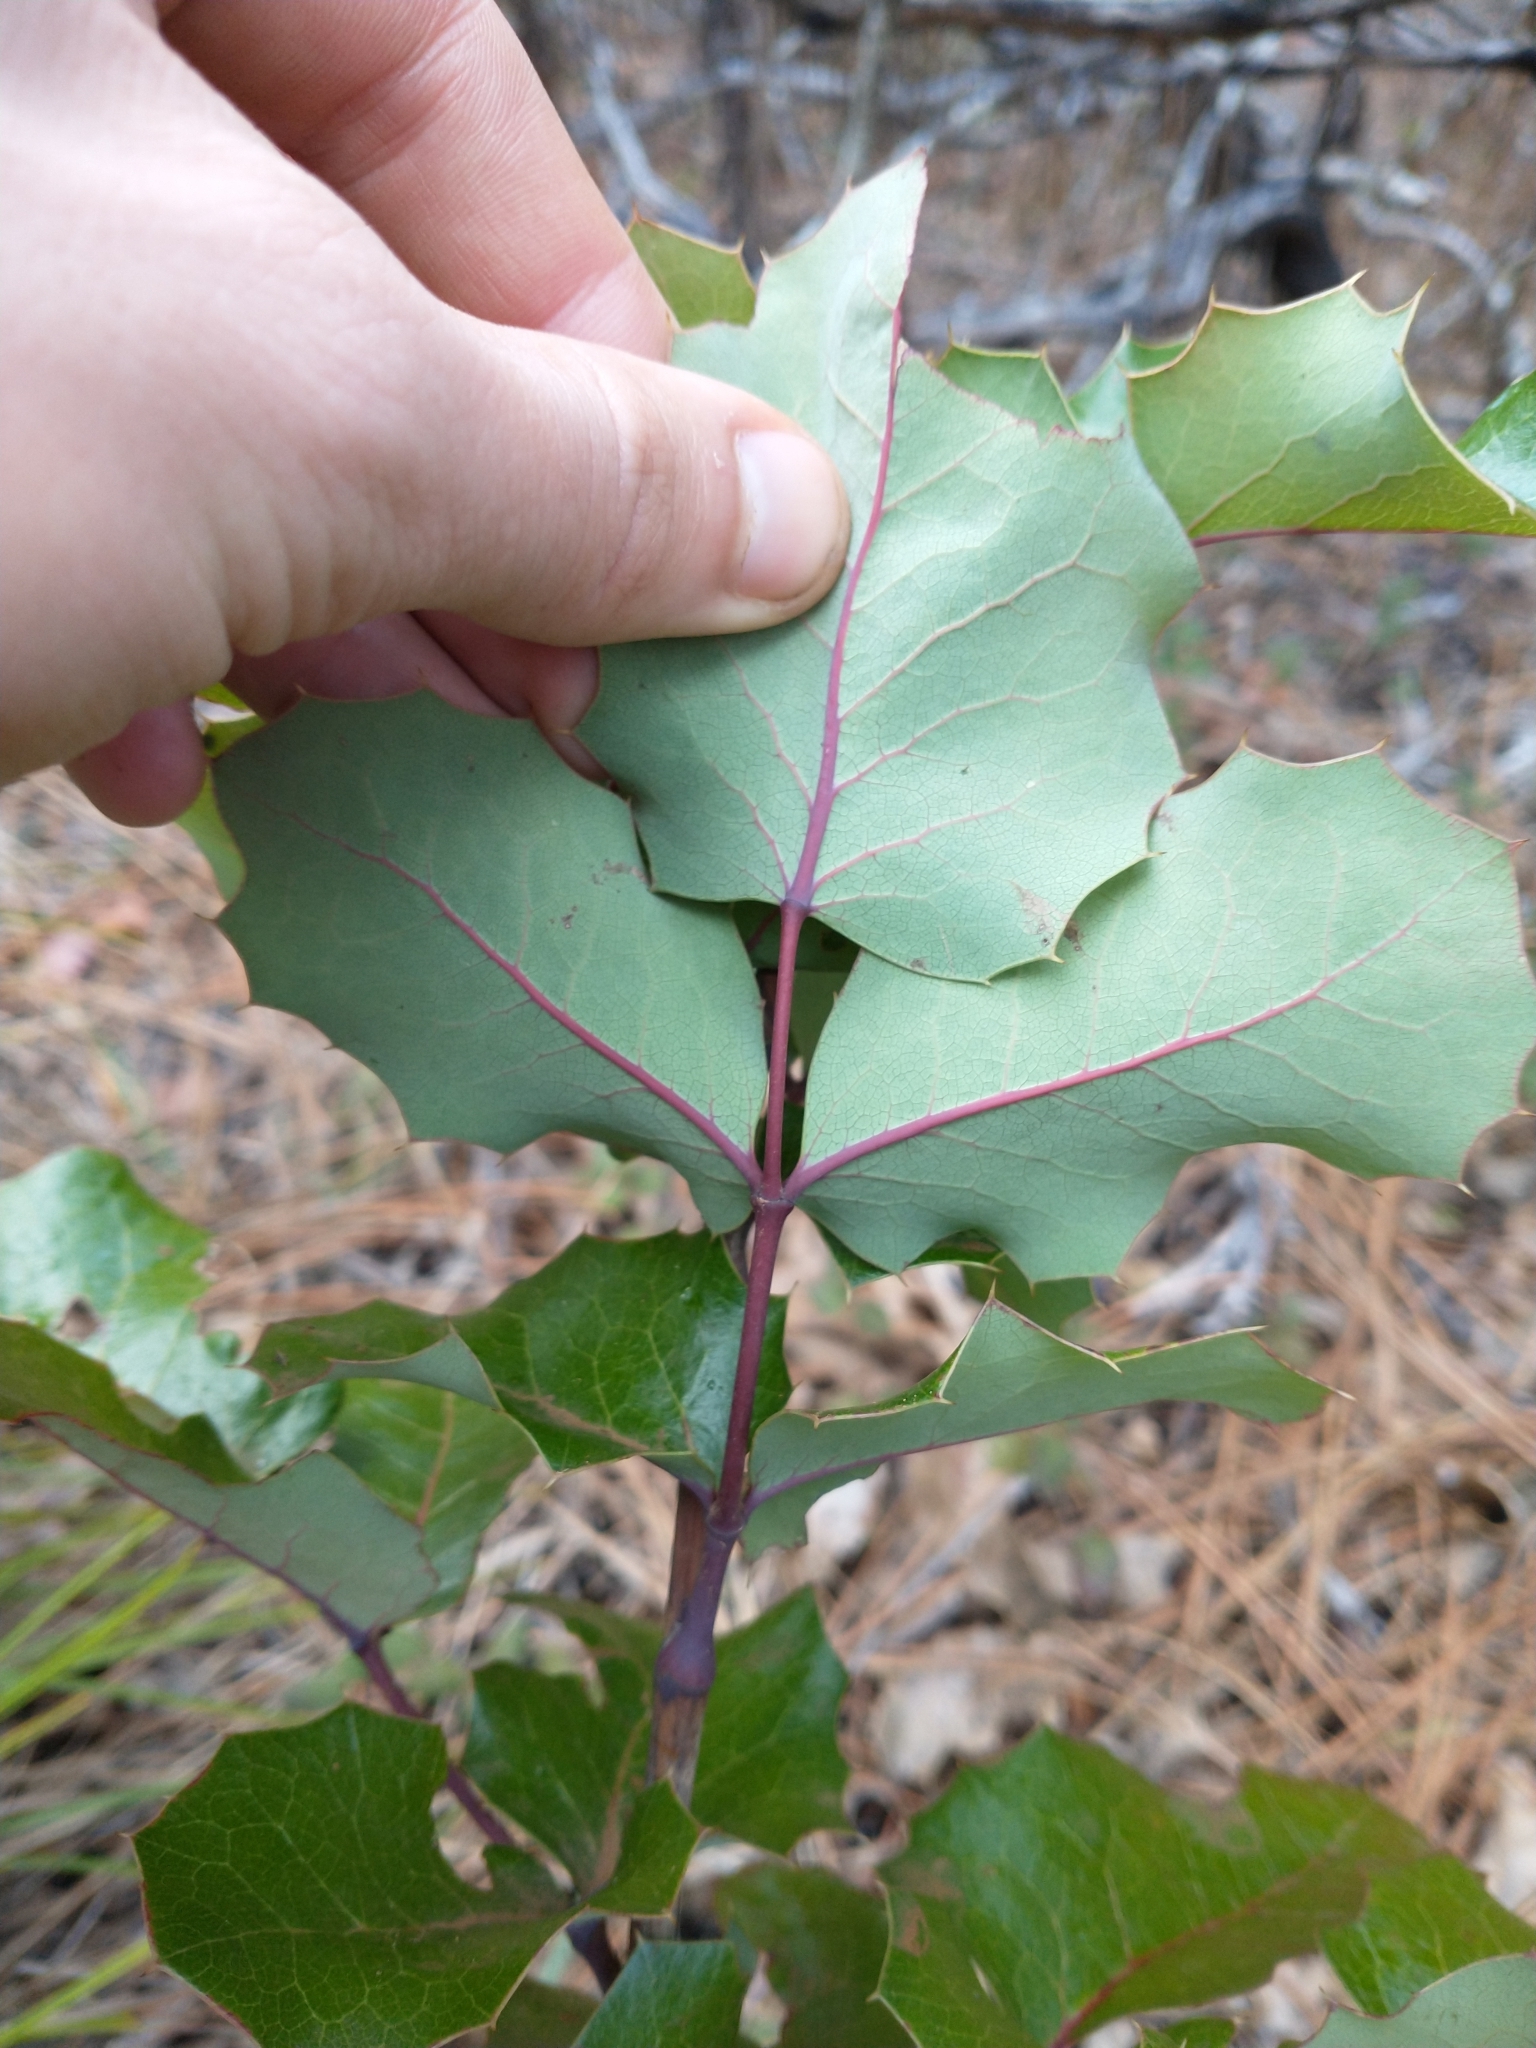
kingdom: Plantae
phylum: Tracheophyta
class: Magnoliopsida
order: Ranunculales
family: Berberidaceae
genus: Mahonia
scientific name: Mahonia aquifolium
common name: Oregon-grape
